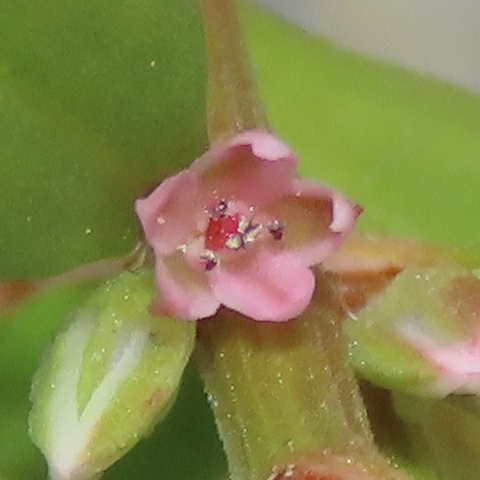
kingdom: Plantae
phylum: Tracheophyta
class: Magnoliopsida
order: Caryophyllales
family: Polygonaceae
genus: Polygonum
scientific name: Polygonum plebeium
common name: Common knotweed
